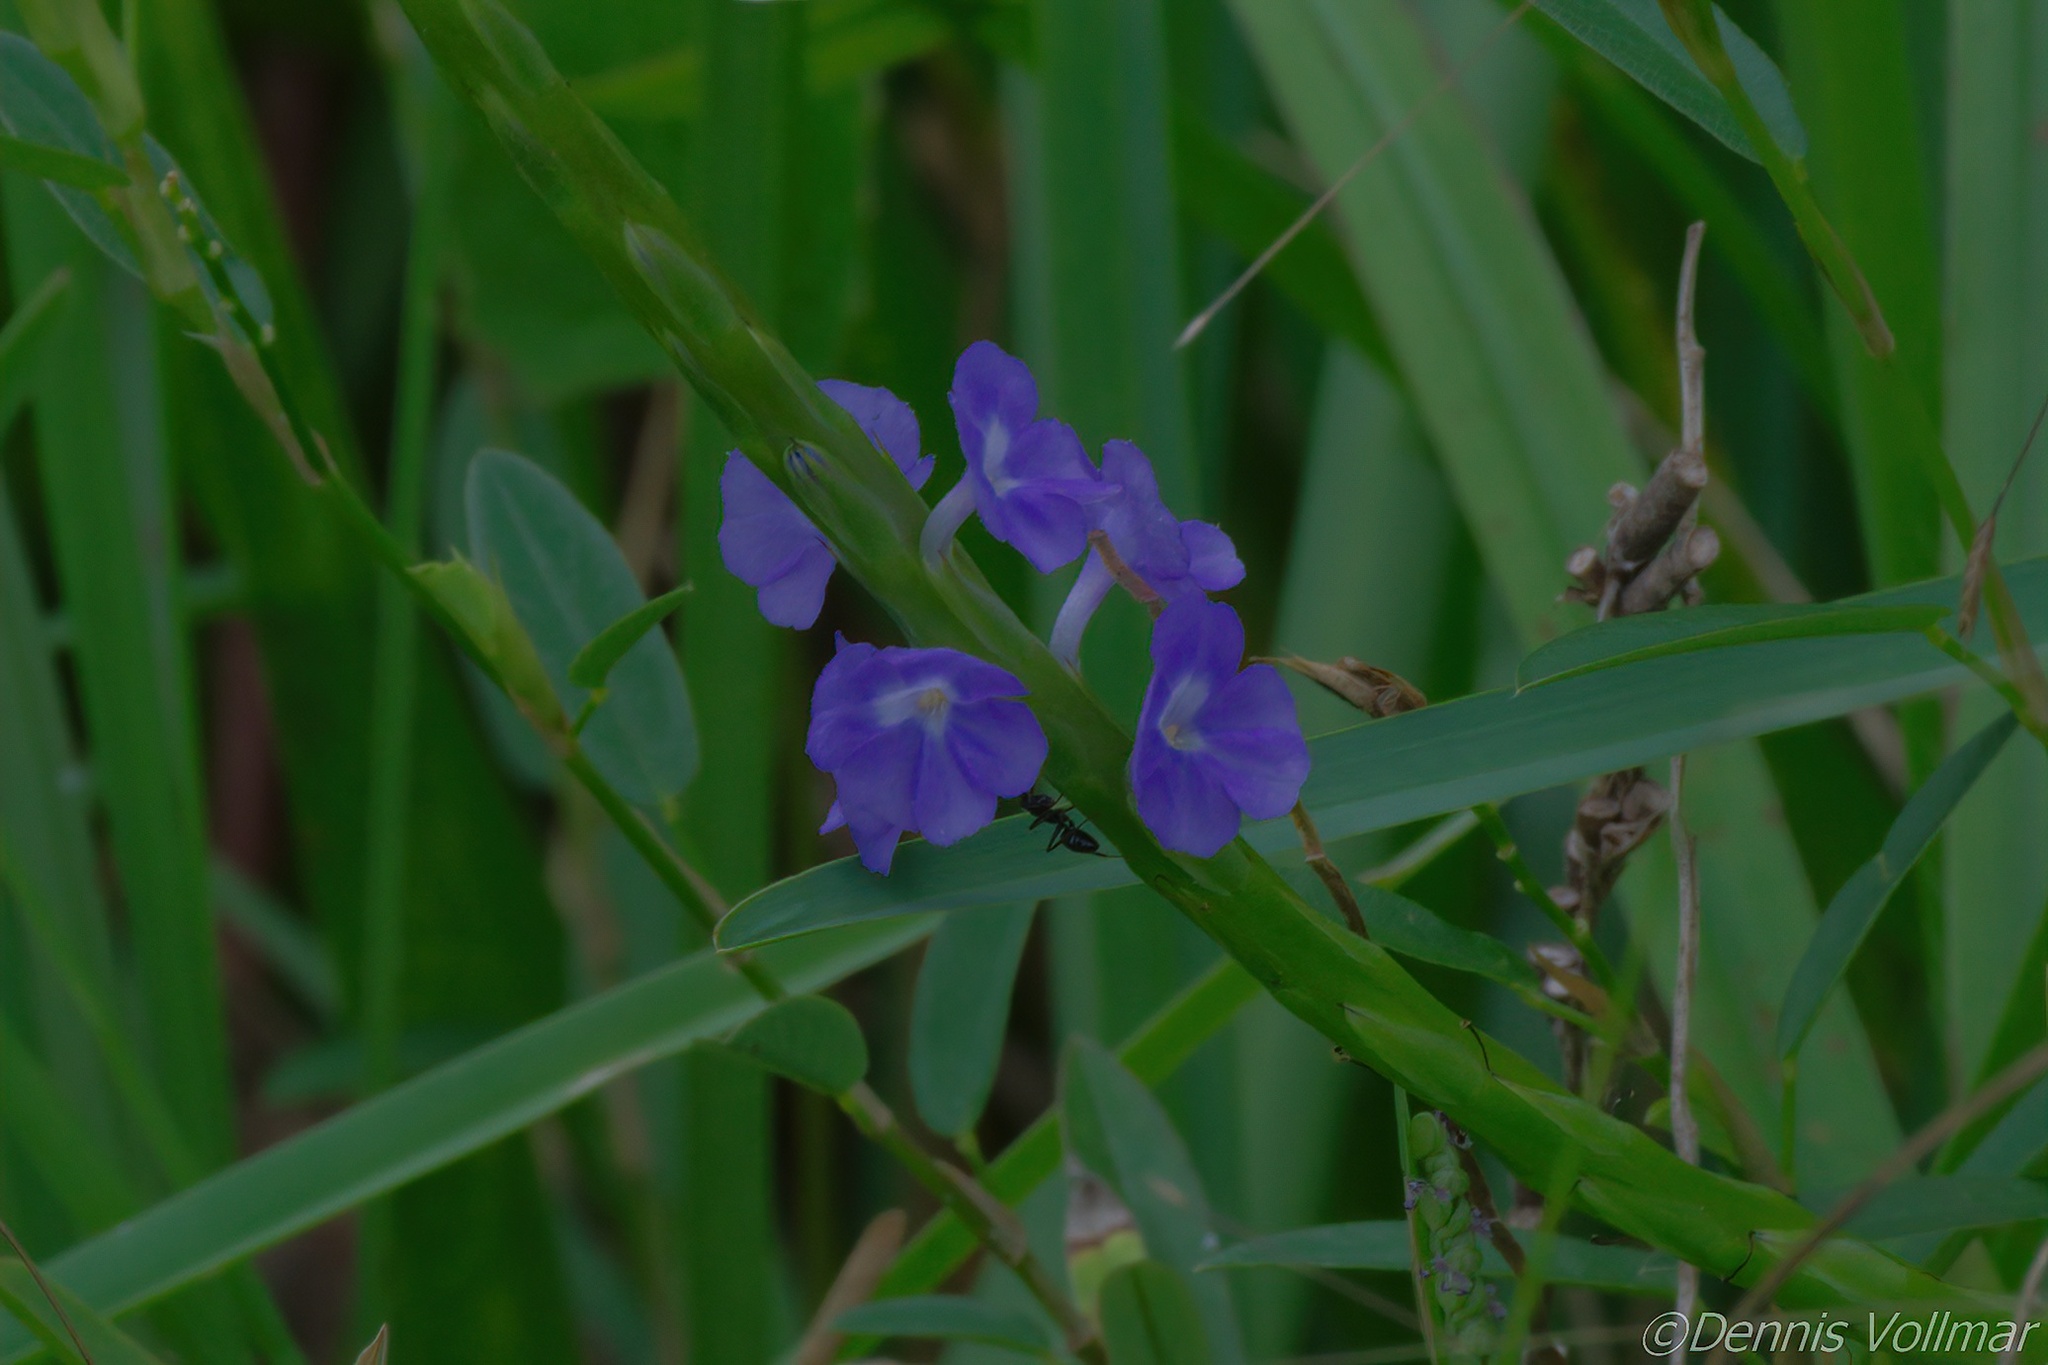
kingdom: Plantae
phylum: Tracheophyta
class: Magnoliopsida
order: Lamiales
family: Verbenaceae
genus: Stachytarpheta
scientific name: Stachytarpheta jamaicensis
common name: Light-blue snakeweed
